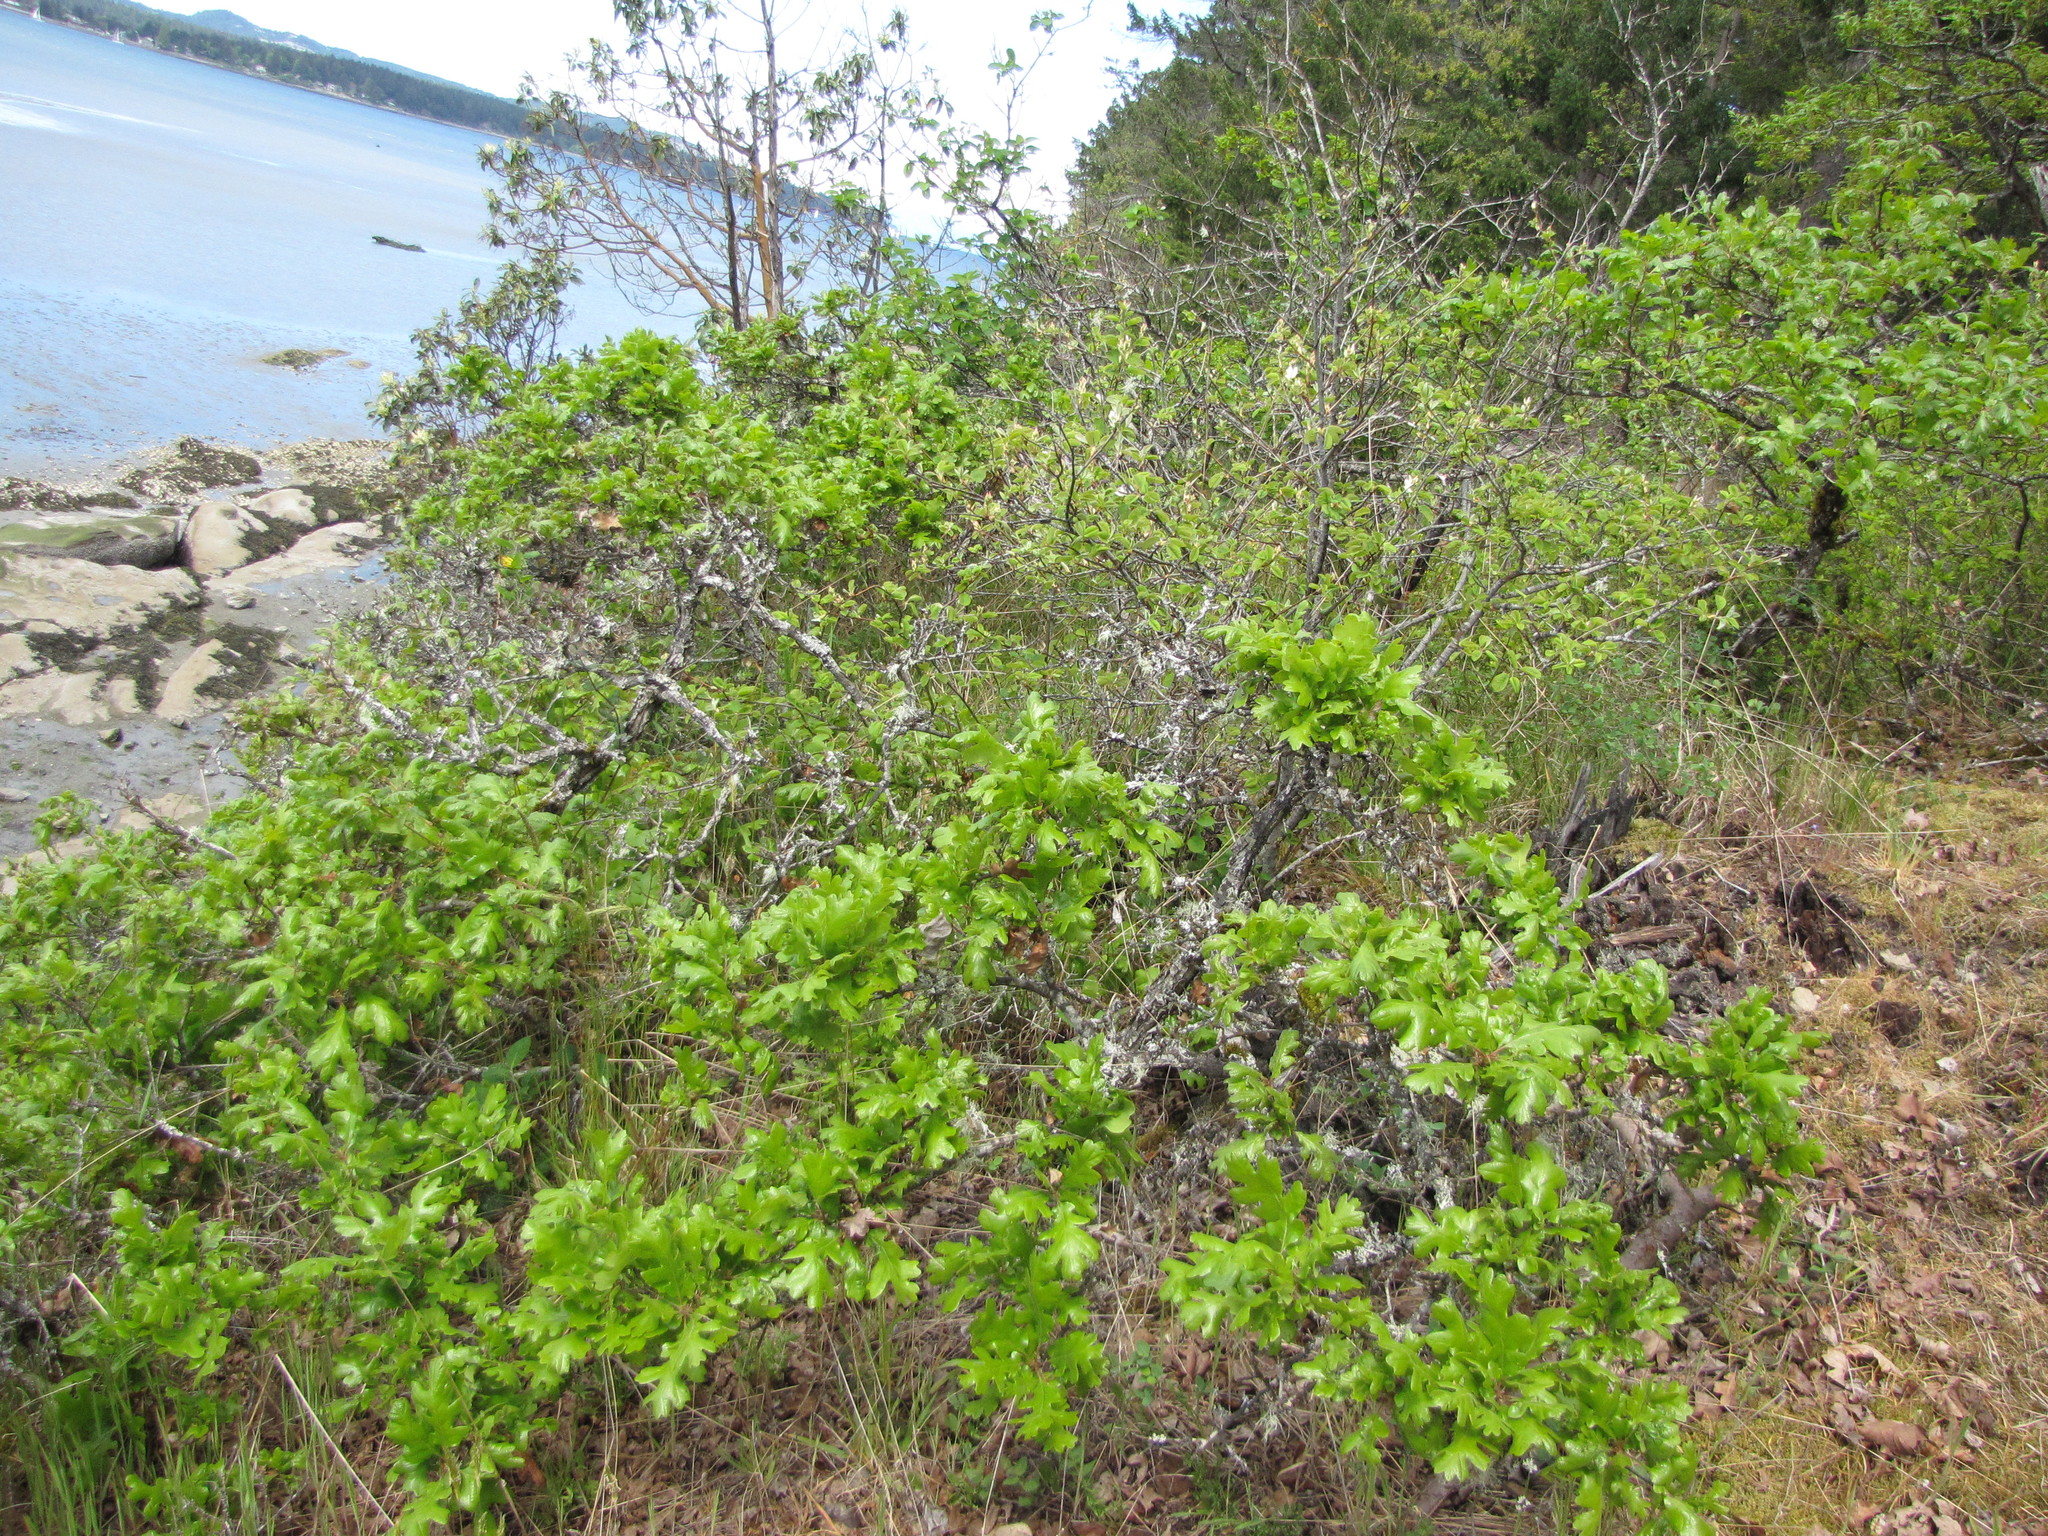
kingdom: Plantae
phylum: Tracheophyta
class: Magnoliopsida
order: Fagales
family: Fagaceae
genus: Quercus
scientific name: Quercus garryana
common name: Garry oak
